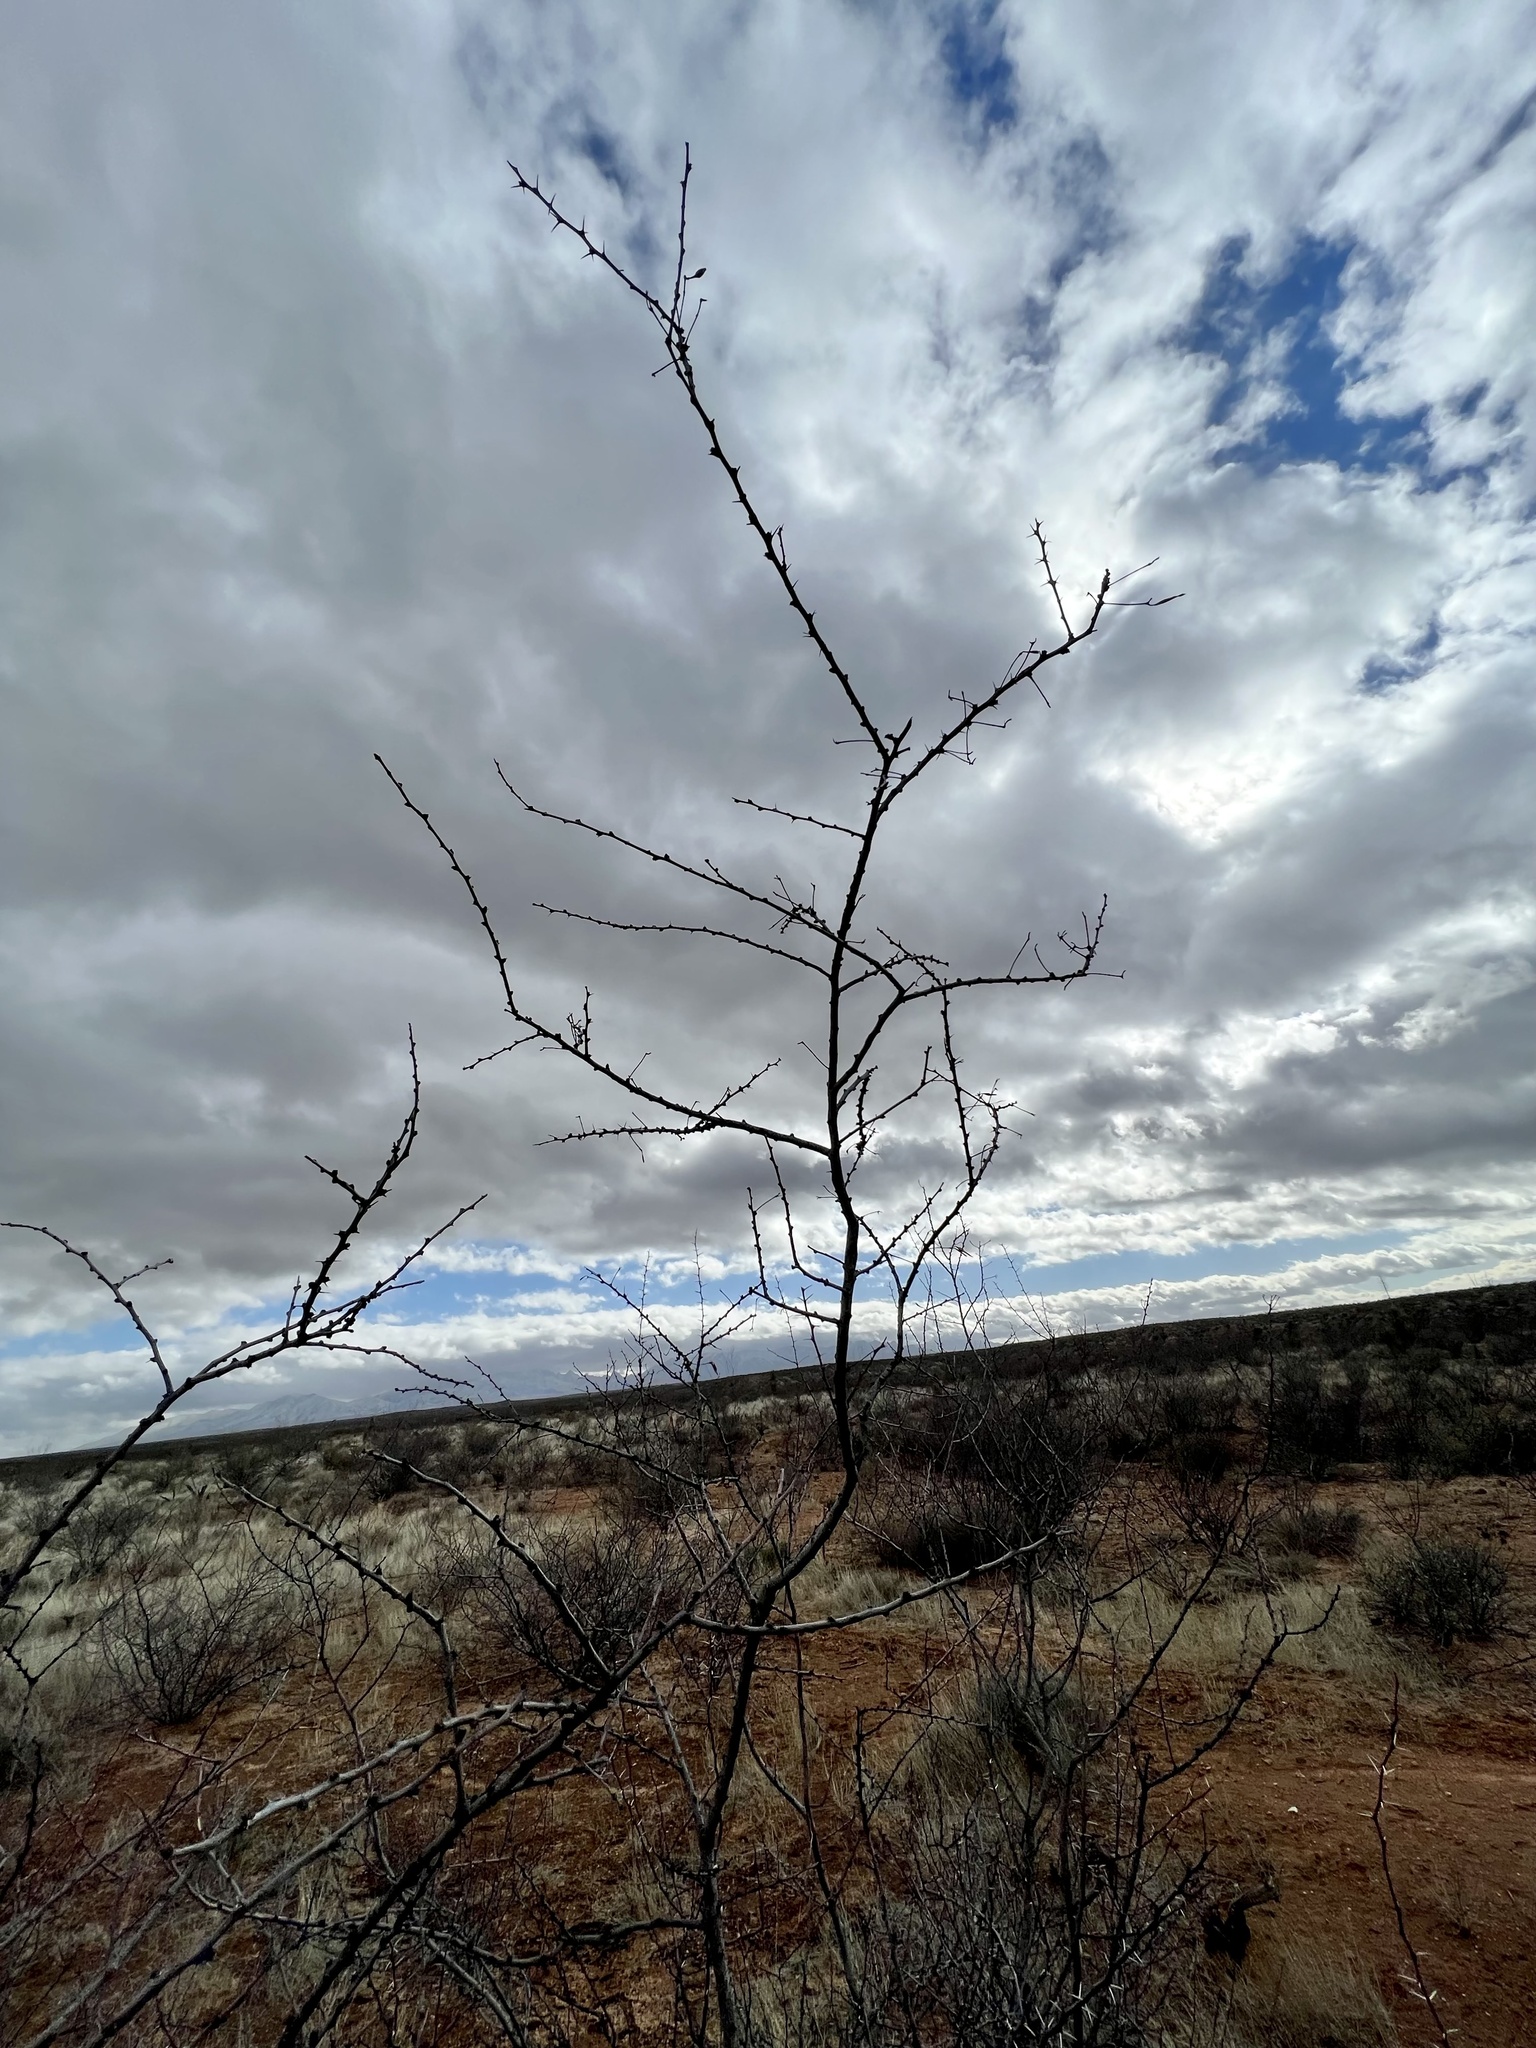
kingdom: Plantae
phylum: Tracheophyta
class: Magnoliopsida
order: Fabales
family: Fabaceae
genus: Vachellia
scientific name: Vachellia vernicosa
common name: Viscid acacia
